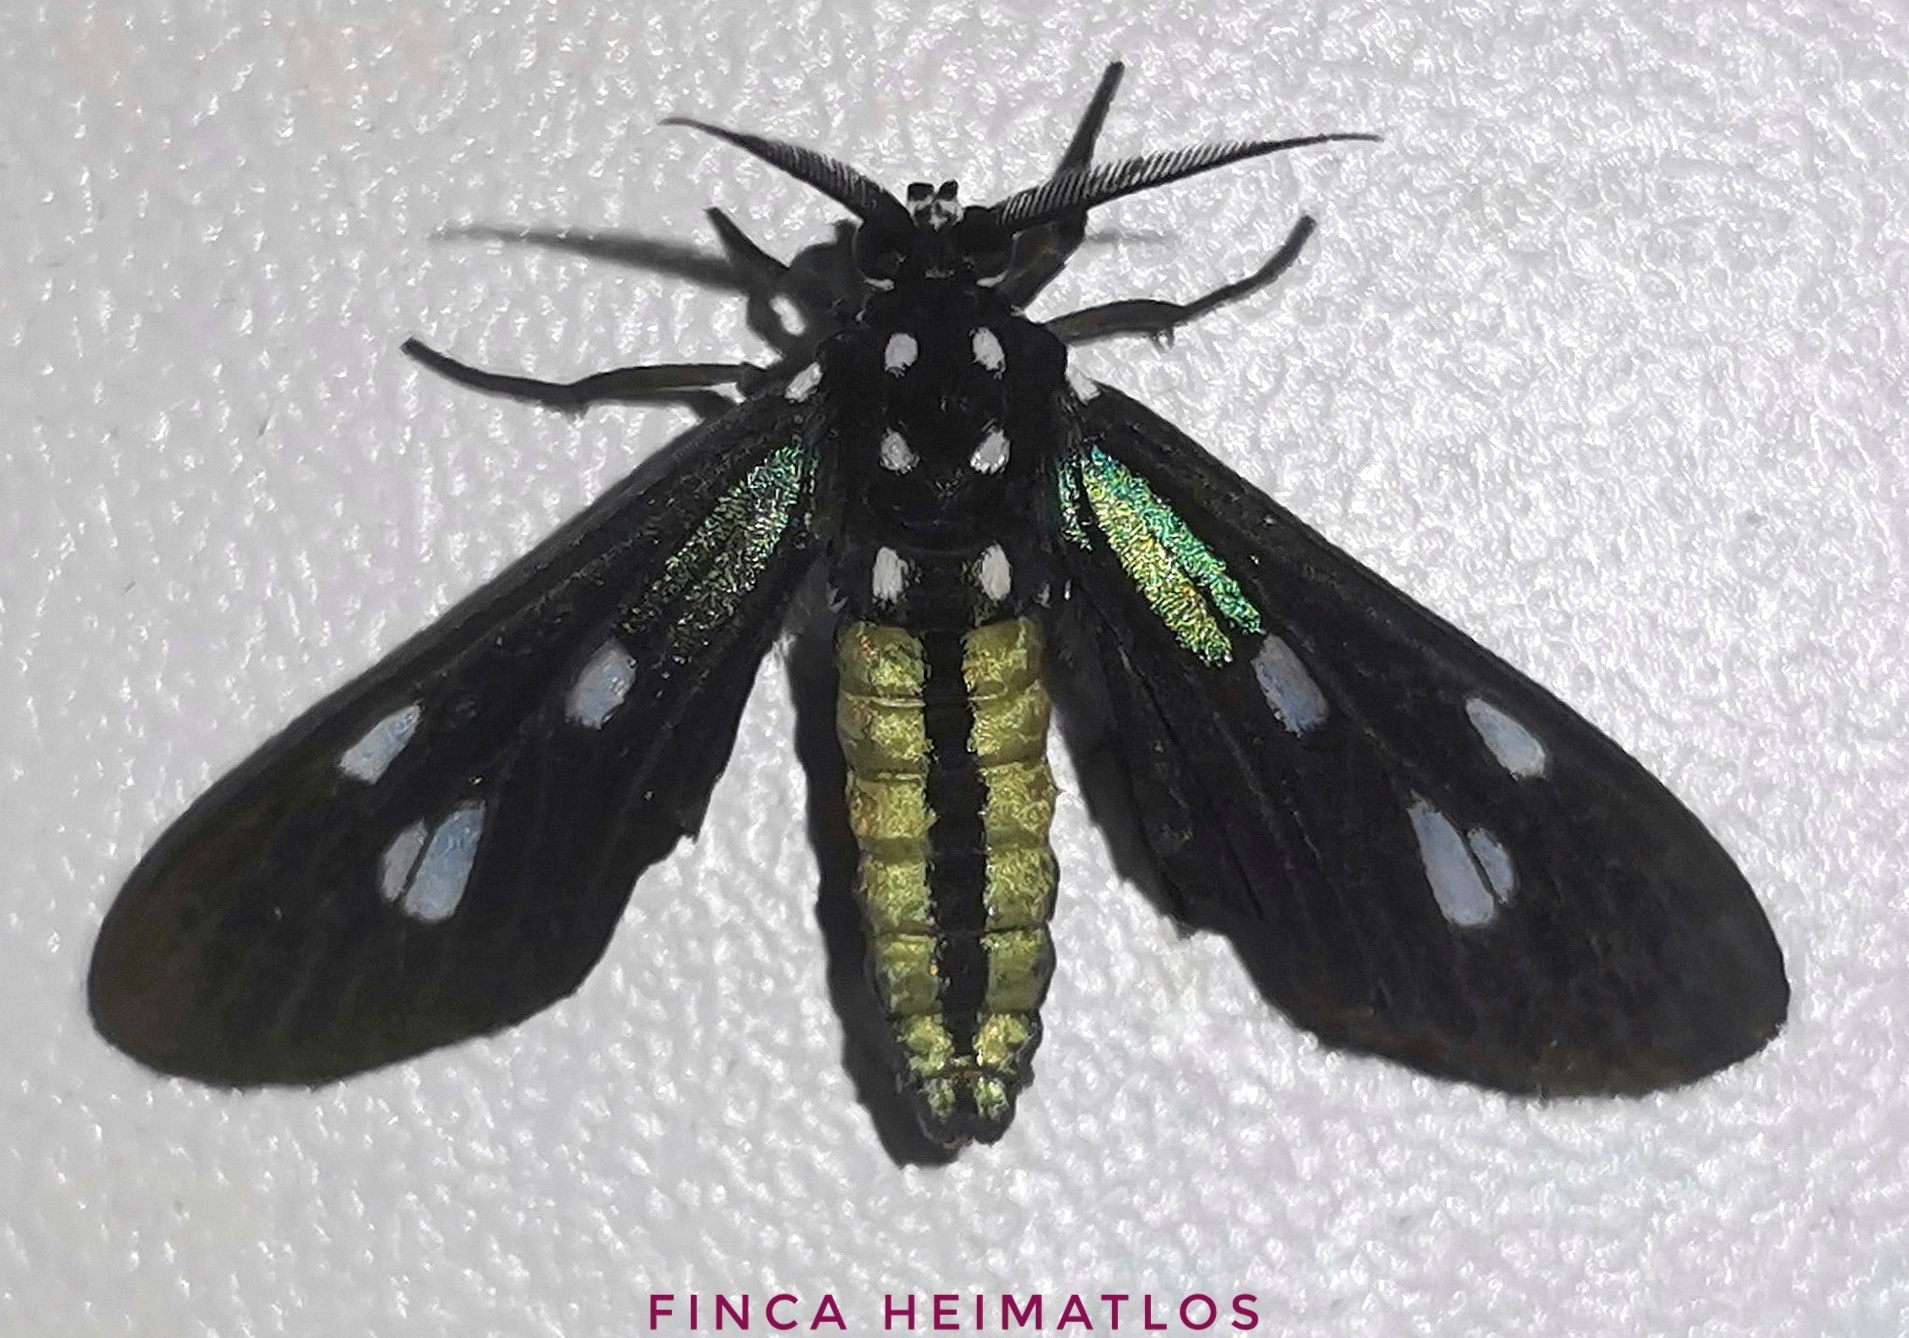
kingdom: Animalia
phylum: Arthropoda
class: Insecta
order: Lepidoptera
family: Erebidae
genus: Leucopleura
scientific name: Leucopleura viridis
